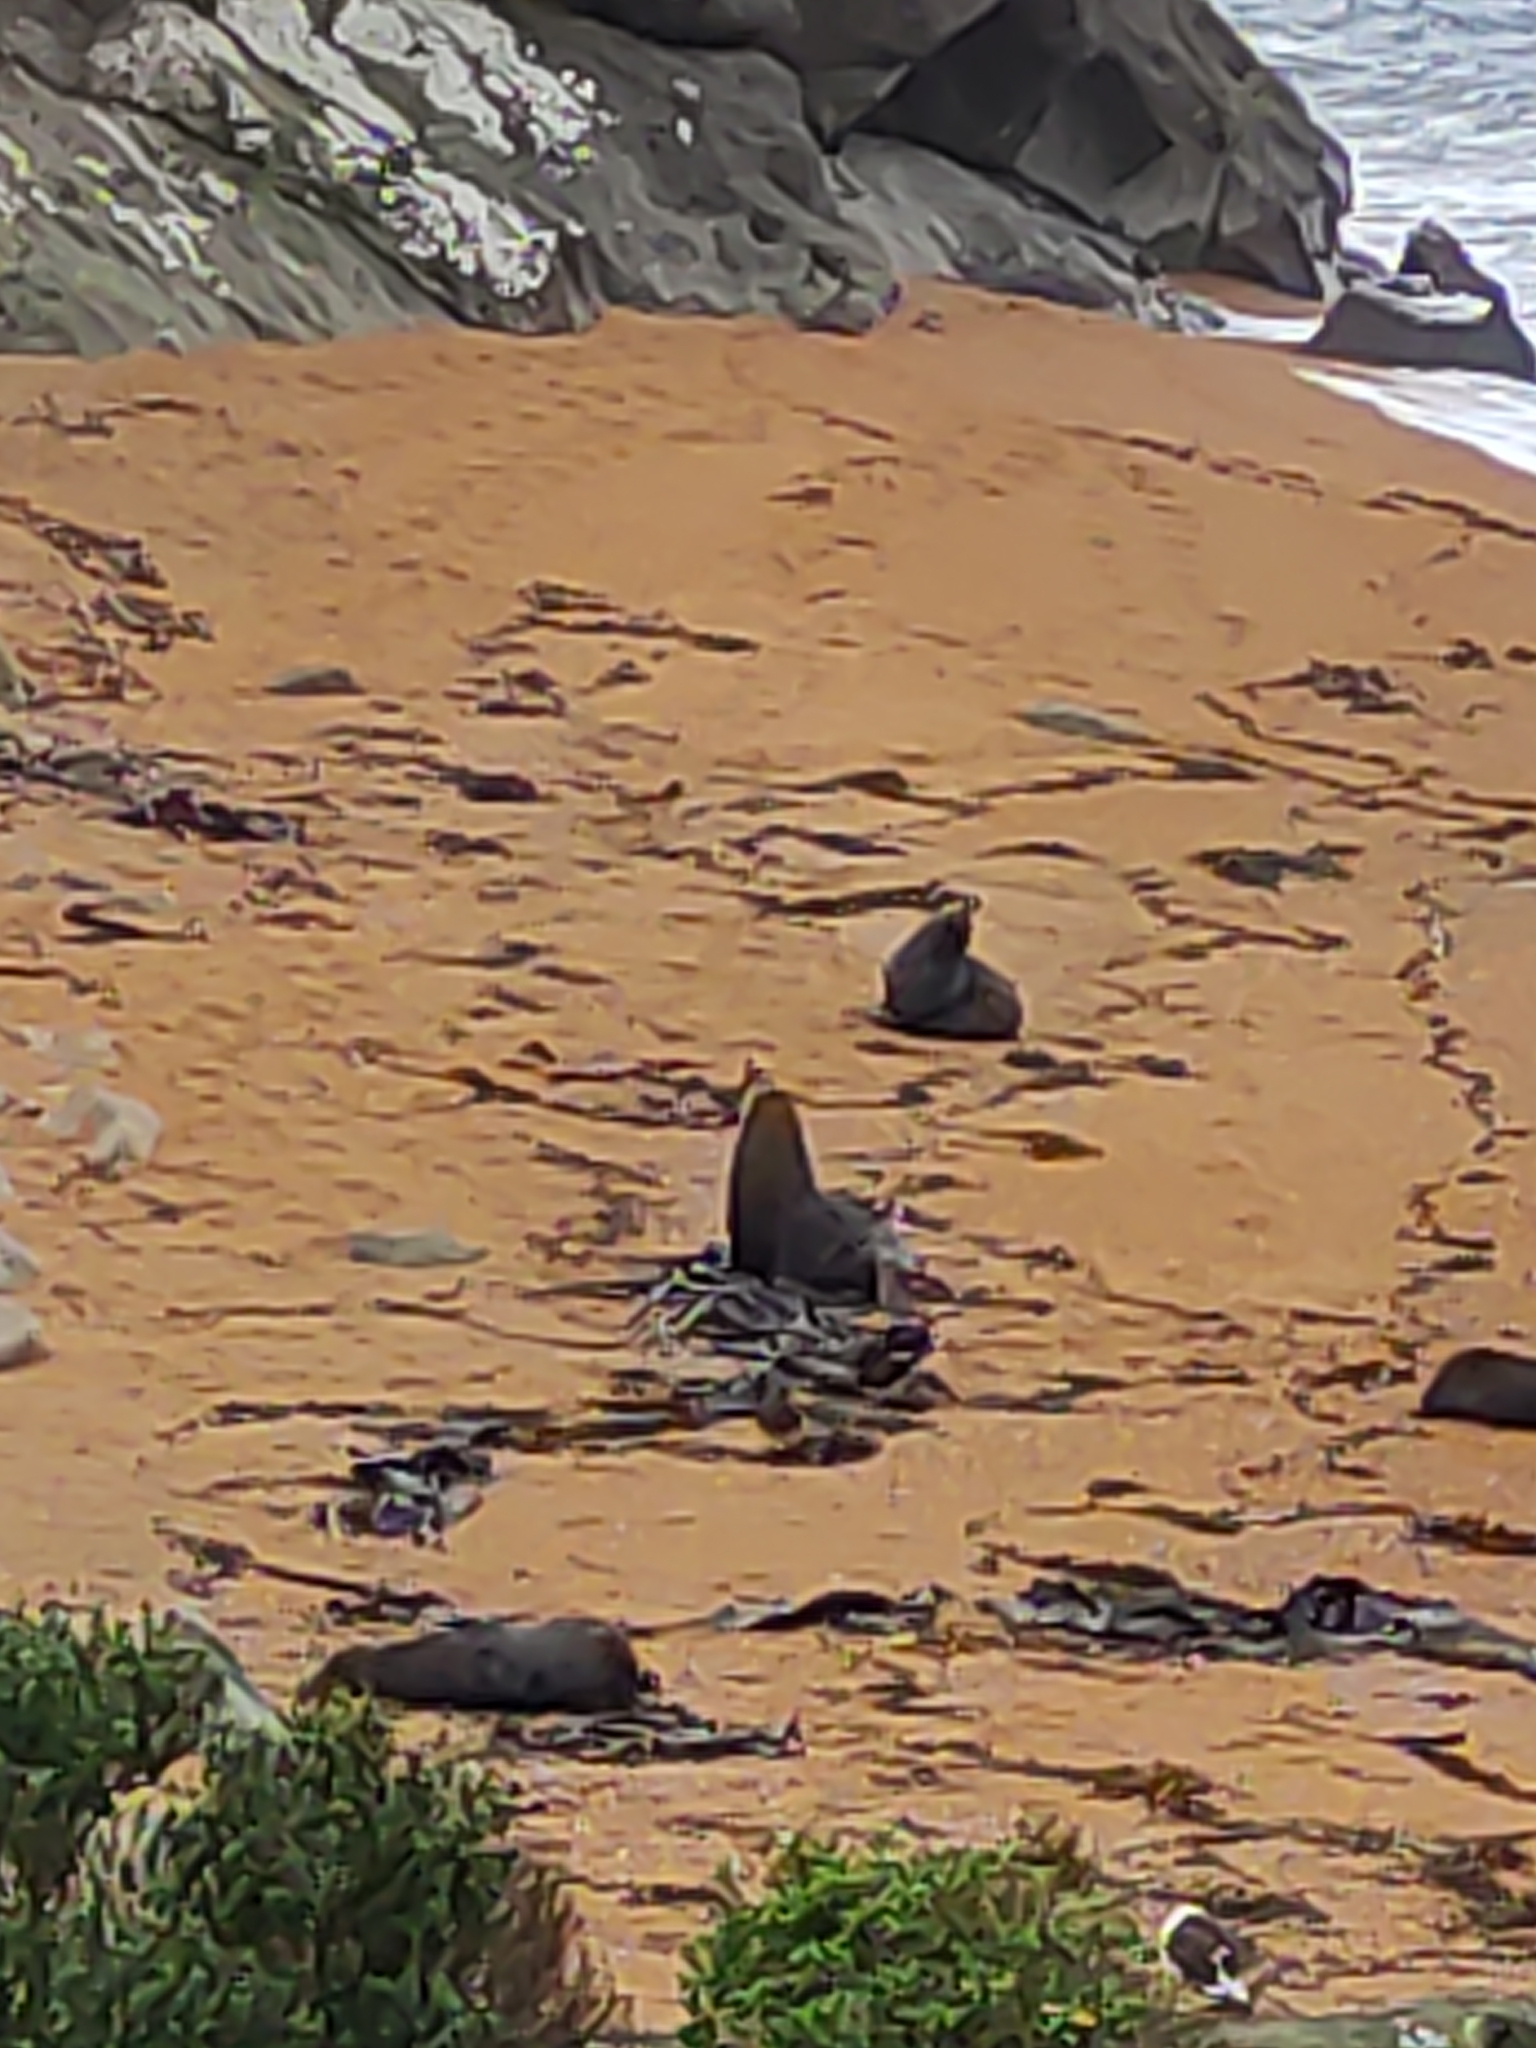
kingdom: Animalia
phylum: Chordata
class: Mammalia
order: Carnivora
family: Otariidae
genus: Arctocephalus
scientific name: Arctocephalus forsteri
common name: New zealand fur seal
